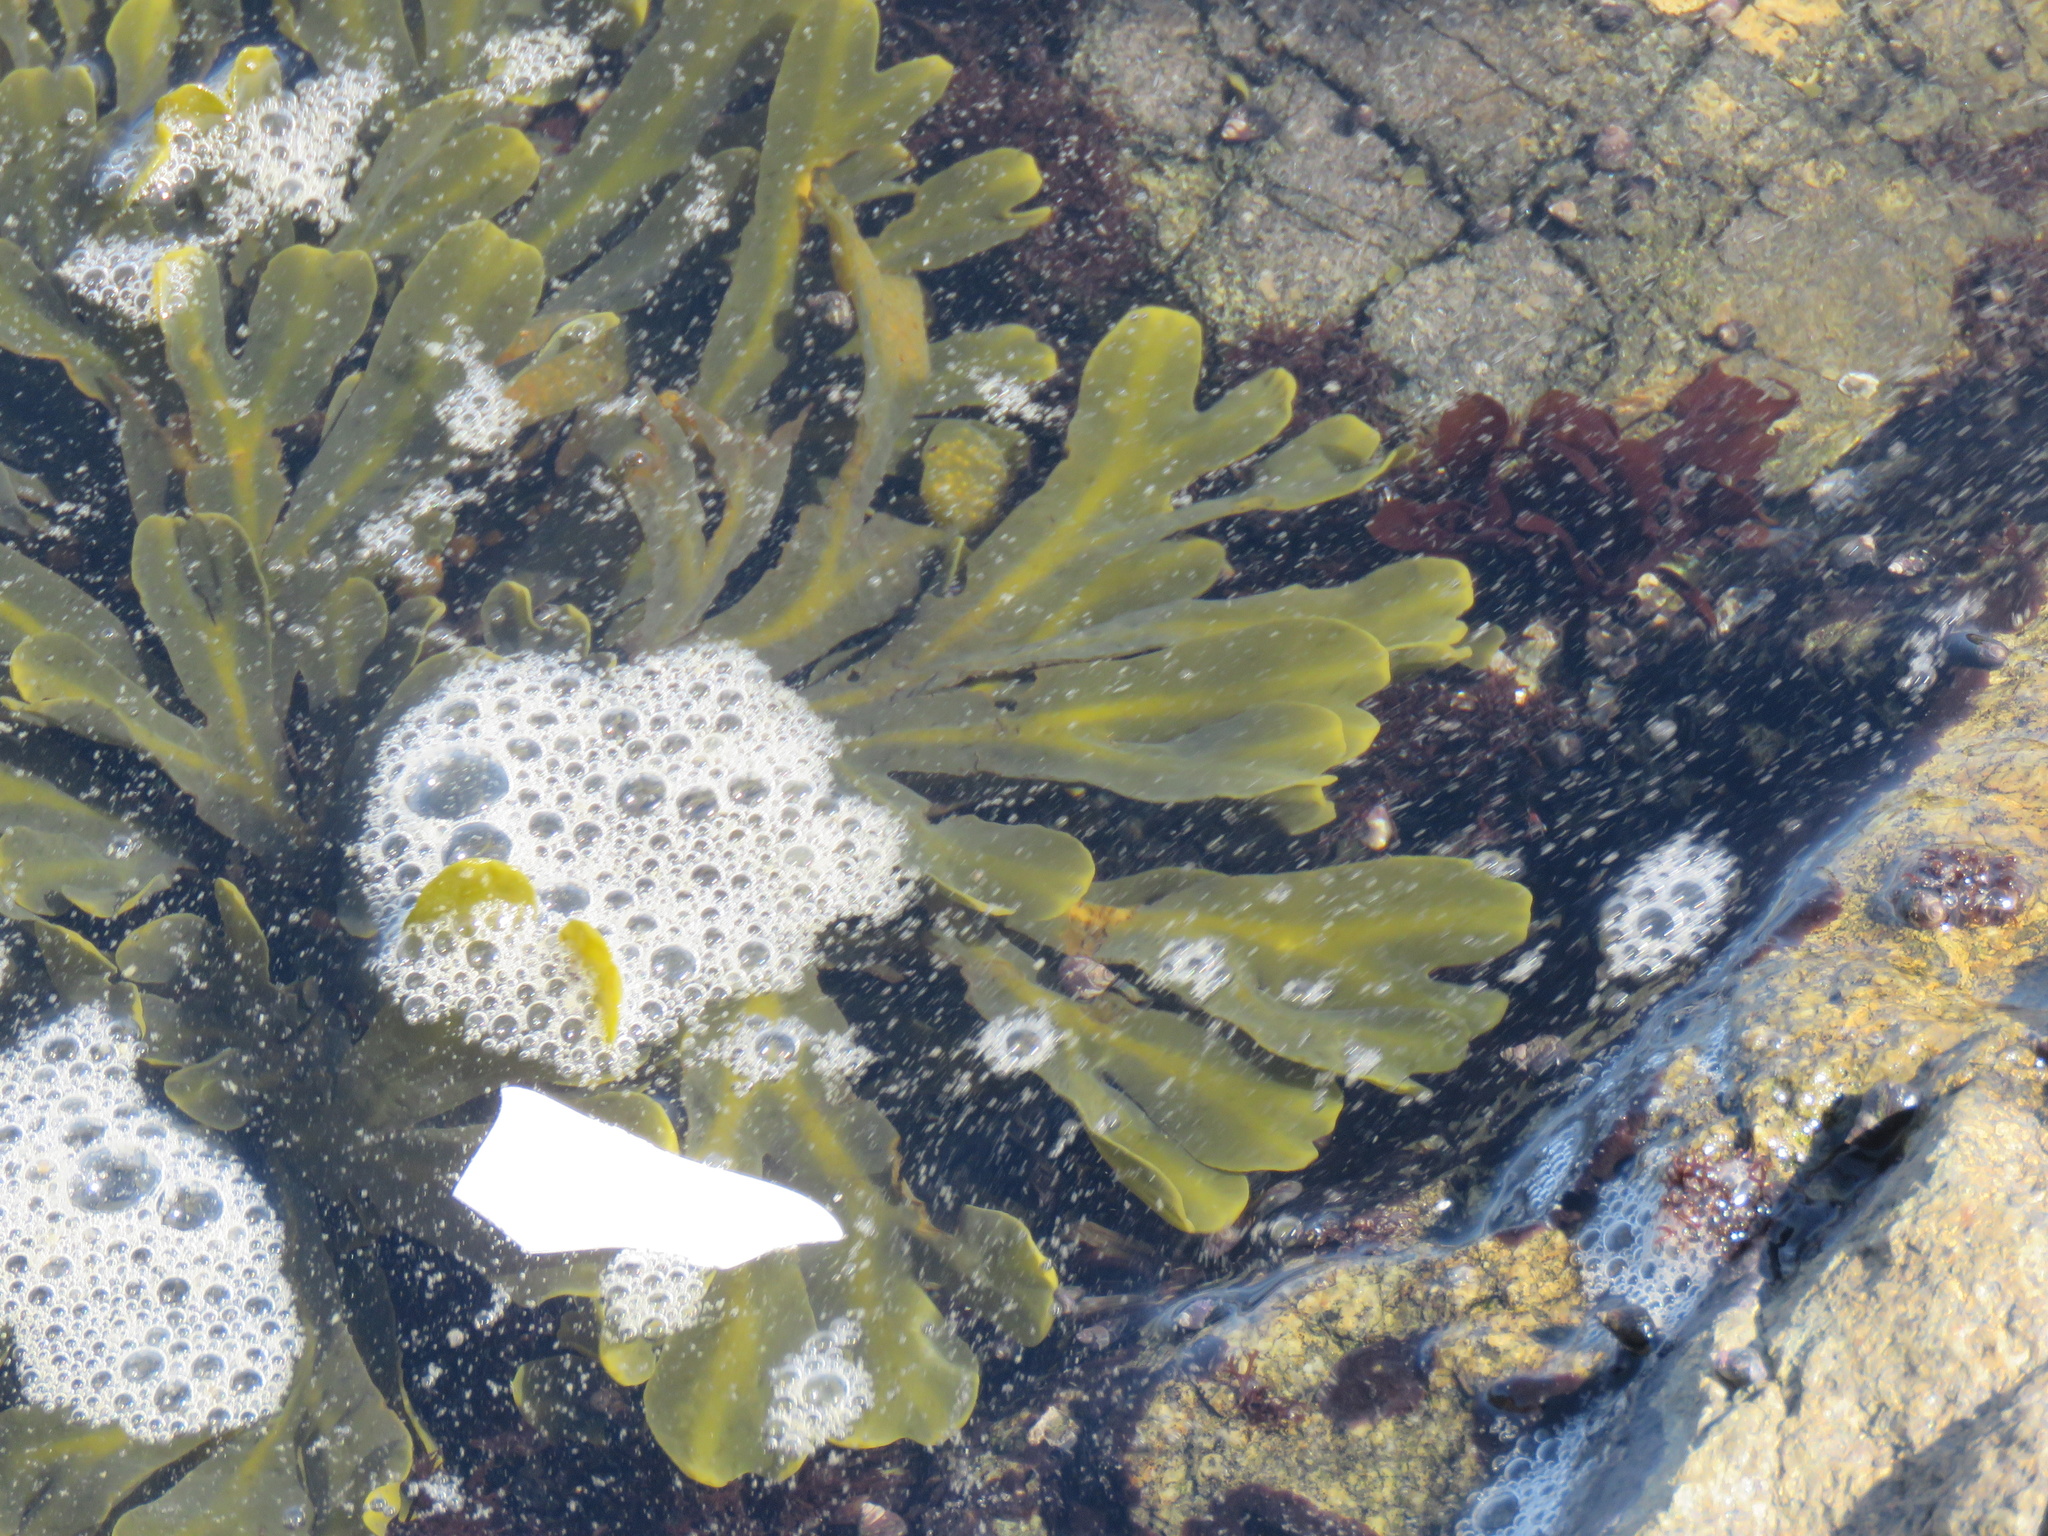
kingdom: Chromista
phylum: Ochrophyta
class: Phaeophyceae
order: Fucales
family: Fucaceae
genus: Fucus
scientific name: Fucus distichus
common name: Rockweed
